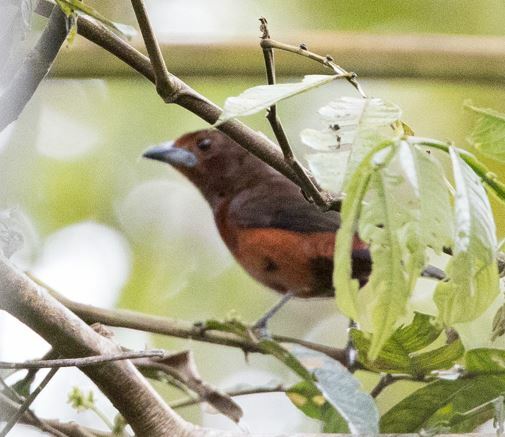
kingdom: Animalia
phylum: Chordata
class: Aves
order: Passeriformes
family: Thraupidae
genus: Ramphocelus
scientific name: Ramphocelus carbo
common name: Silver-beaked tanager
